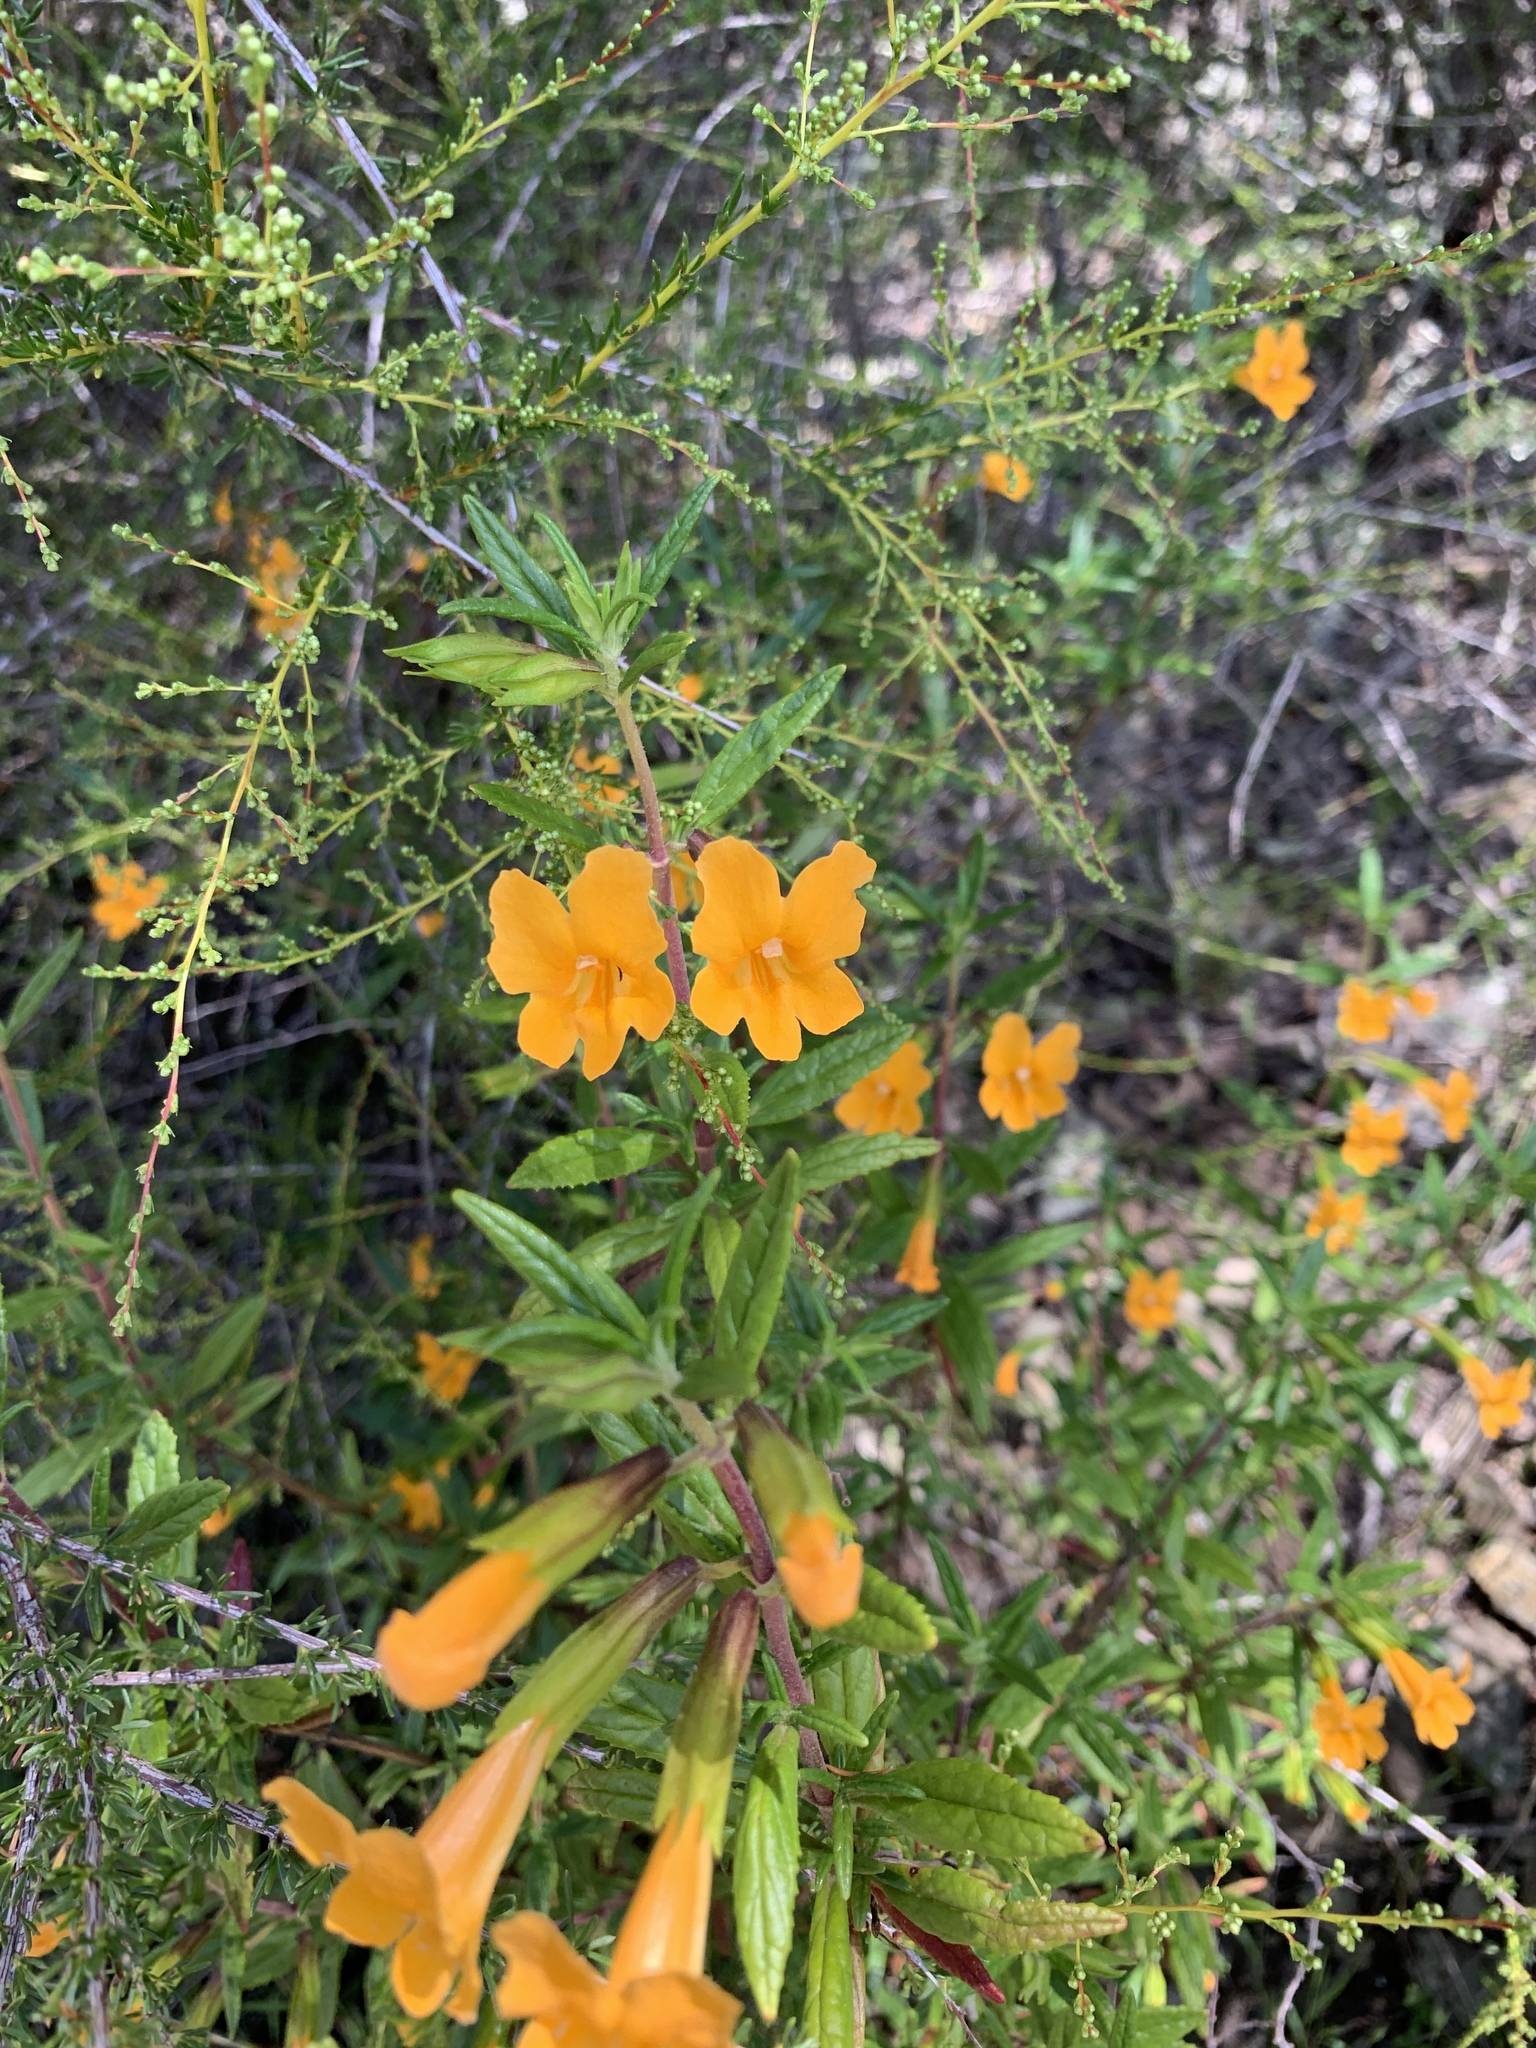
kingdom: Plantae
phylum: Tracheophyta
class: Magnoliopsida
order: Lamiales
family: Phrymaceae
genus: Diplacus
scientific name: Diplacus aurantiacus
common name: Bush monkey-flower
